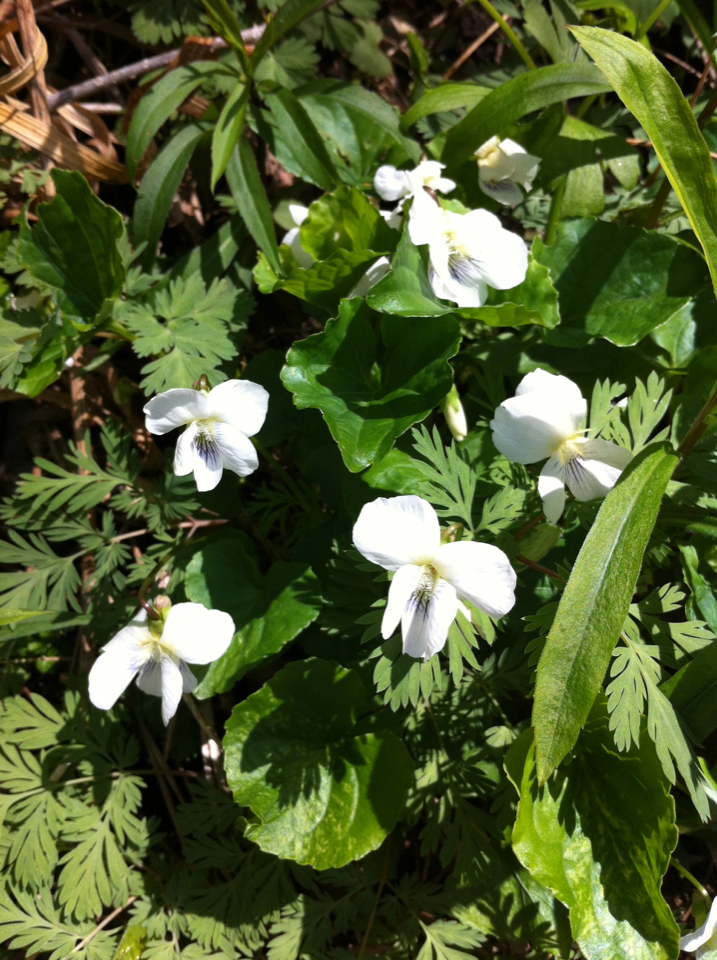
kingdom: Plantae
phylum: Tracheophyta
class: Magnoliopsida
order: Malpighiales
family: Violaceae
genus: Viola
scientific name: Viola blanda
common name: Sweet white violet
